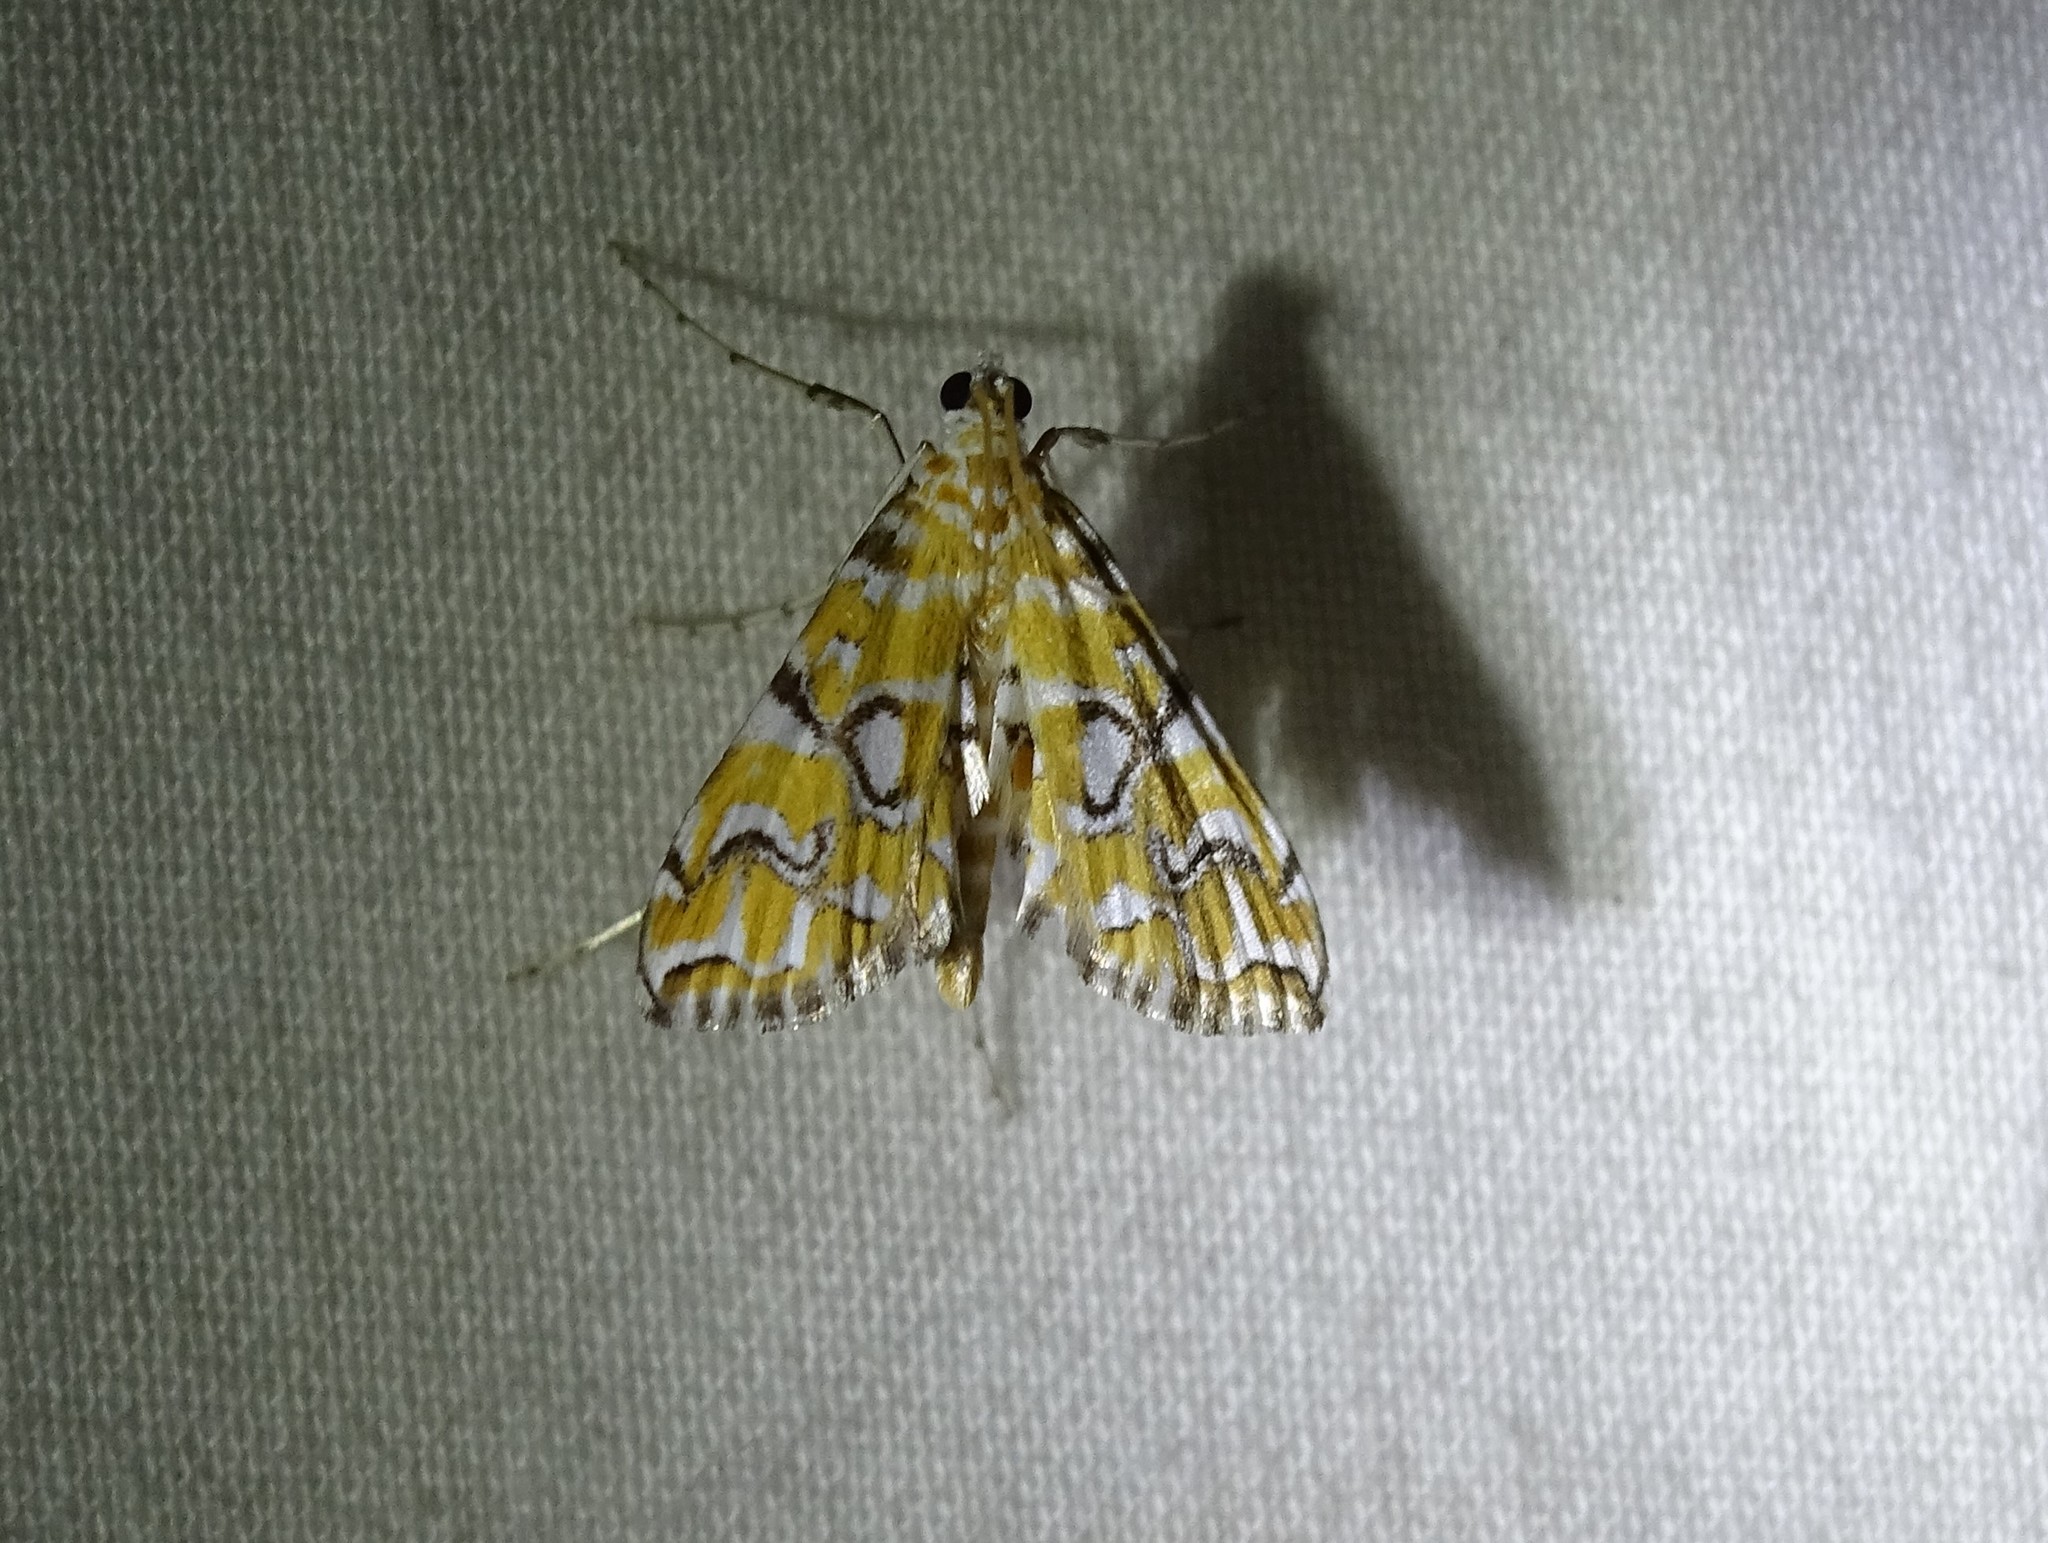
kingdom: Animalia
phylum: Arthropoda
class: Insecta
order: Lepidoptera
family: Crambidae
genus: Elophila
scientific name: Elophila icciusalis
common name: Pondside pyralid moth
